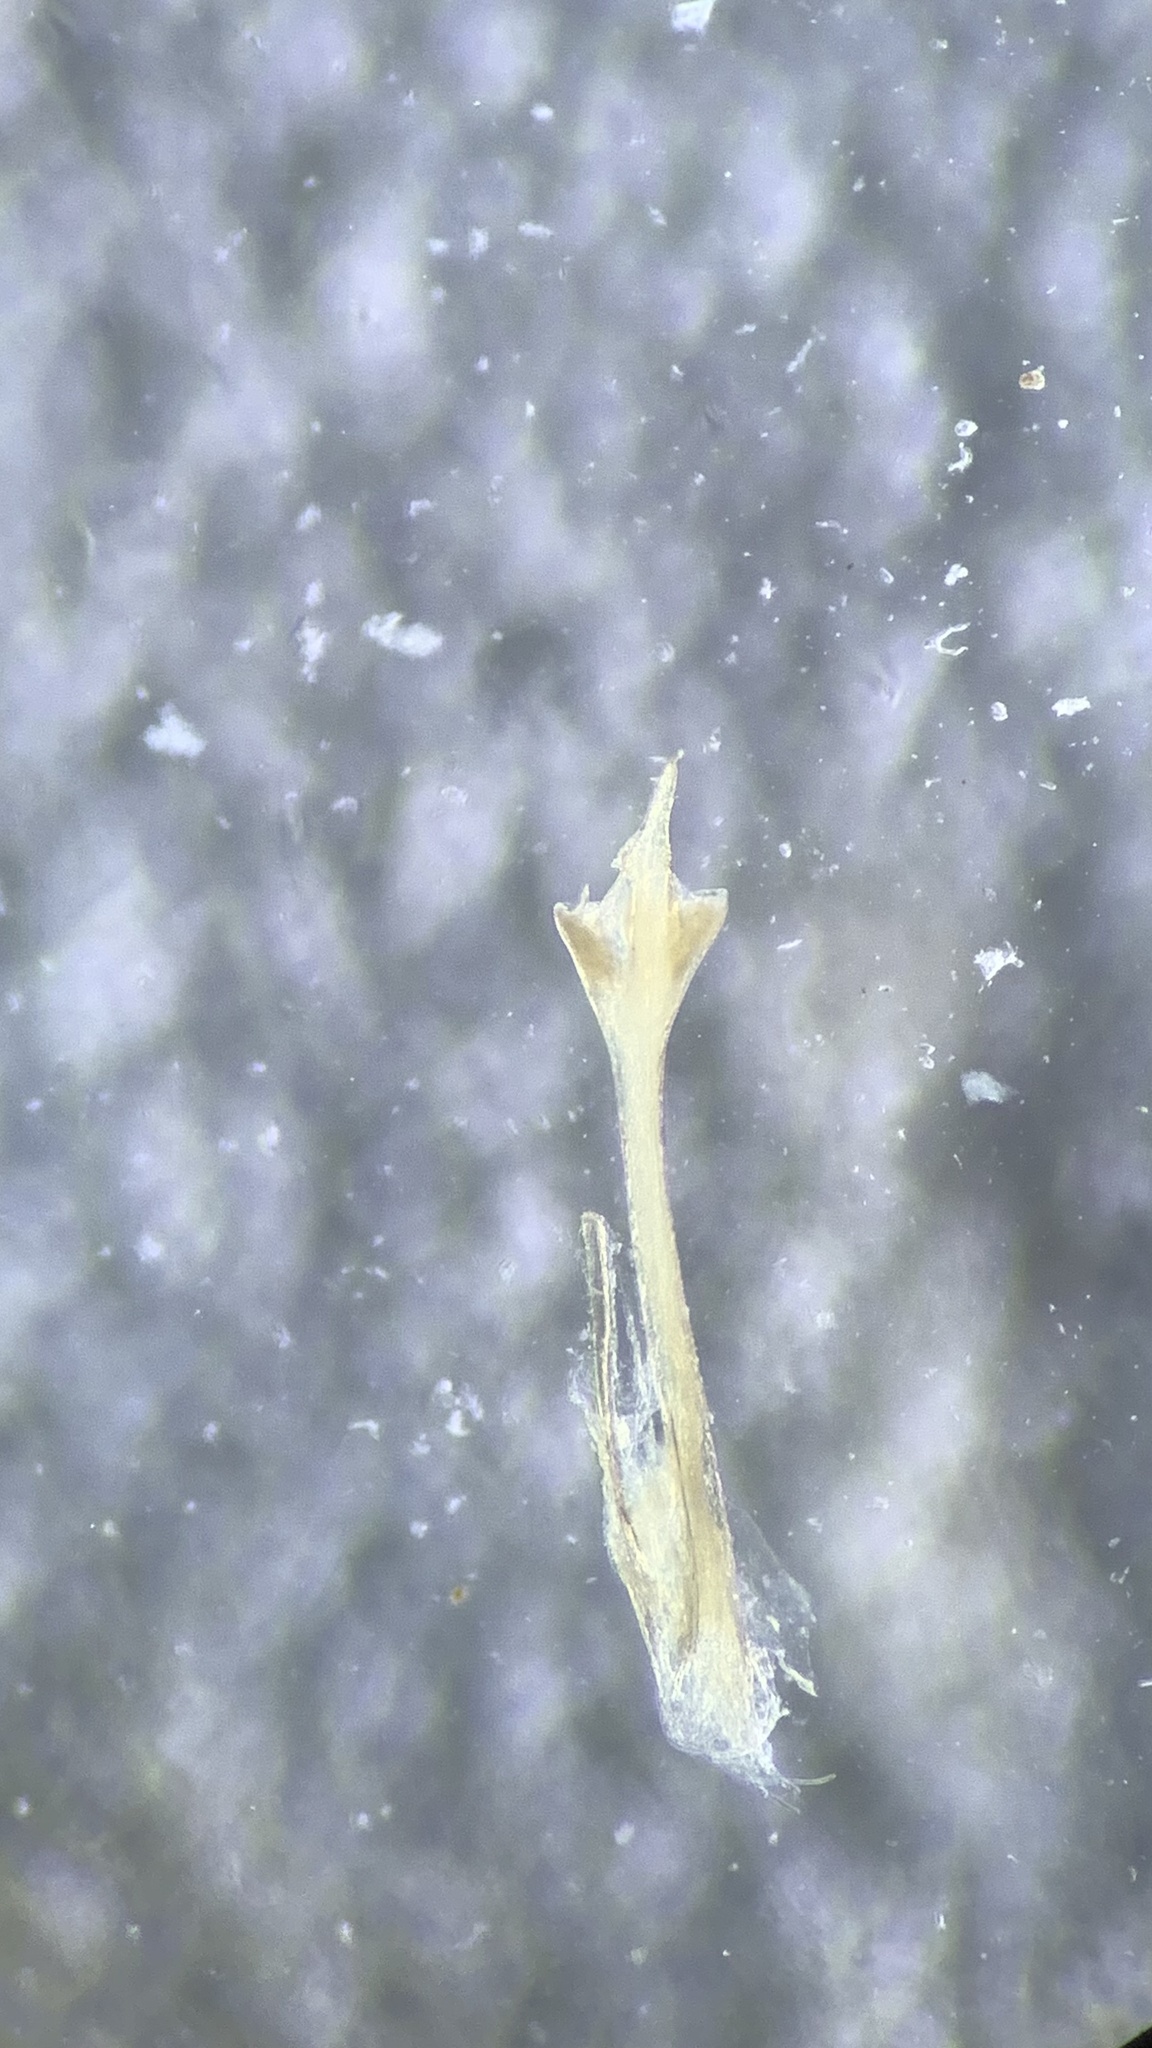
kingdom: Animalia
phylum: Arthropoda
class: Arachnida
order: Opiliones
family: Sclerosomatidae
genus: Nelima
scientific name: Nelima doriae
